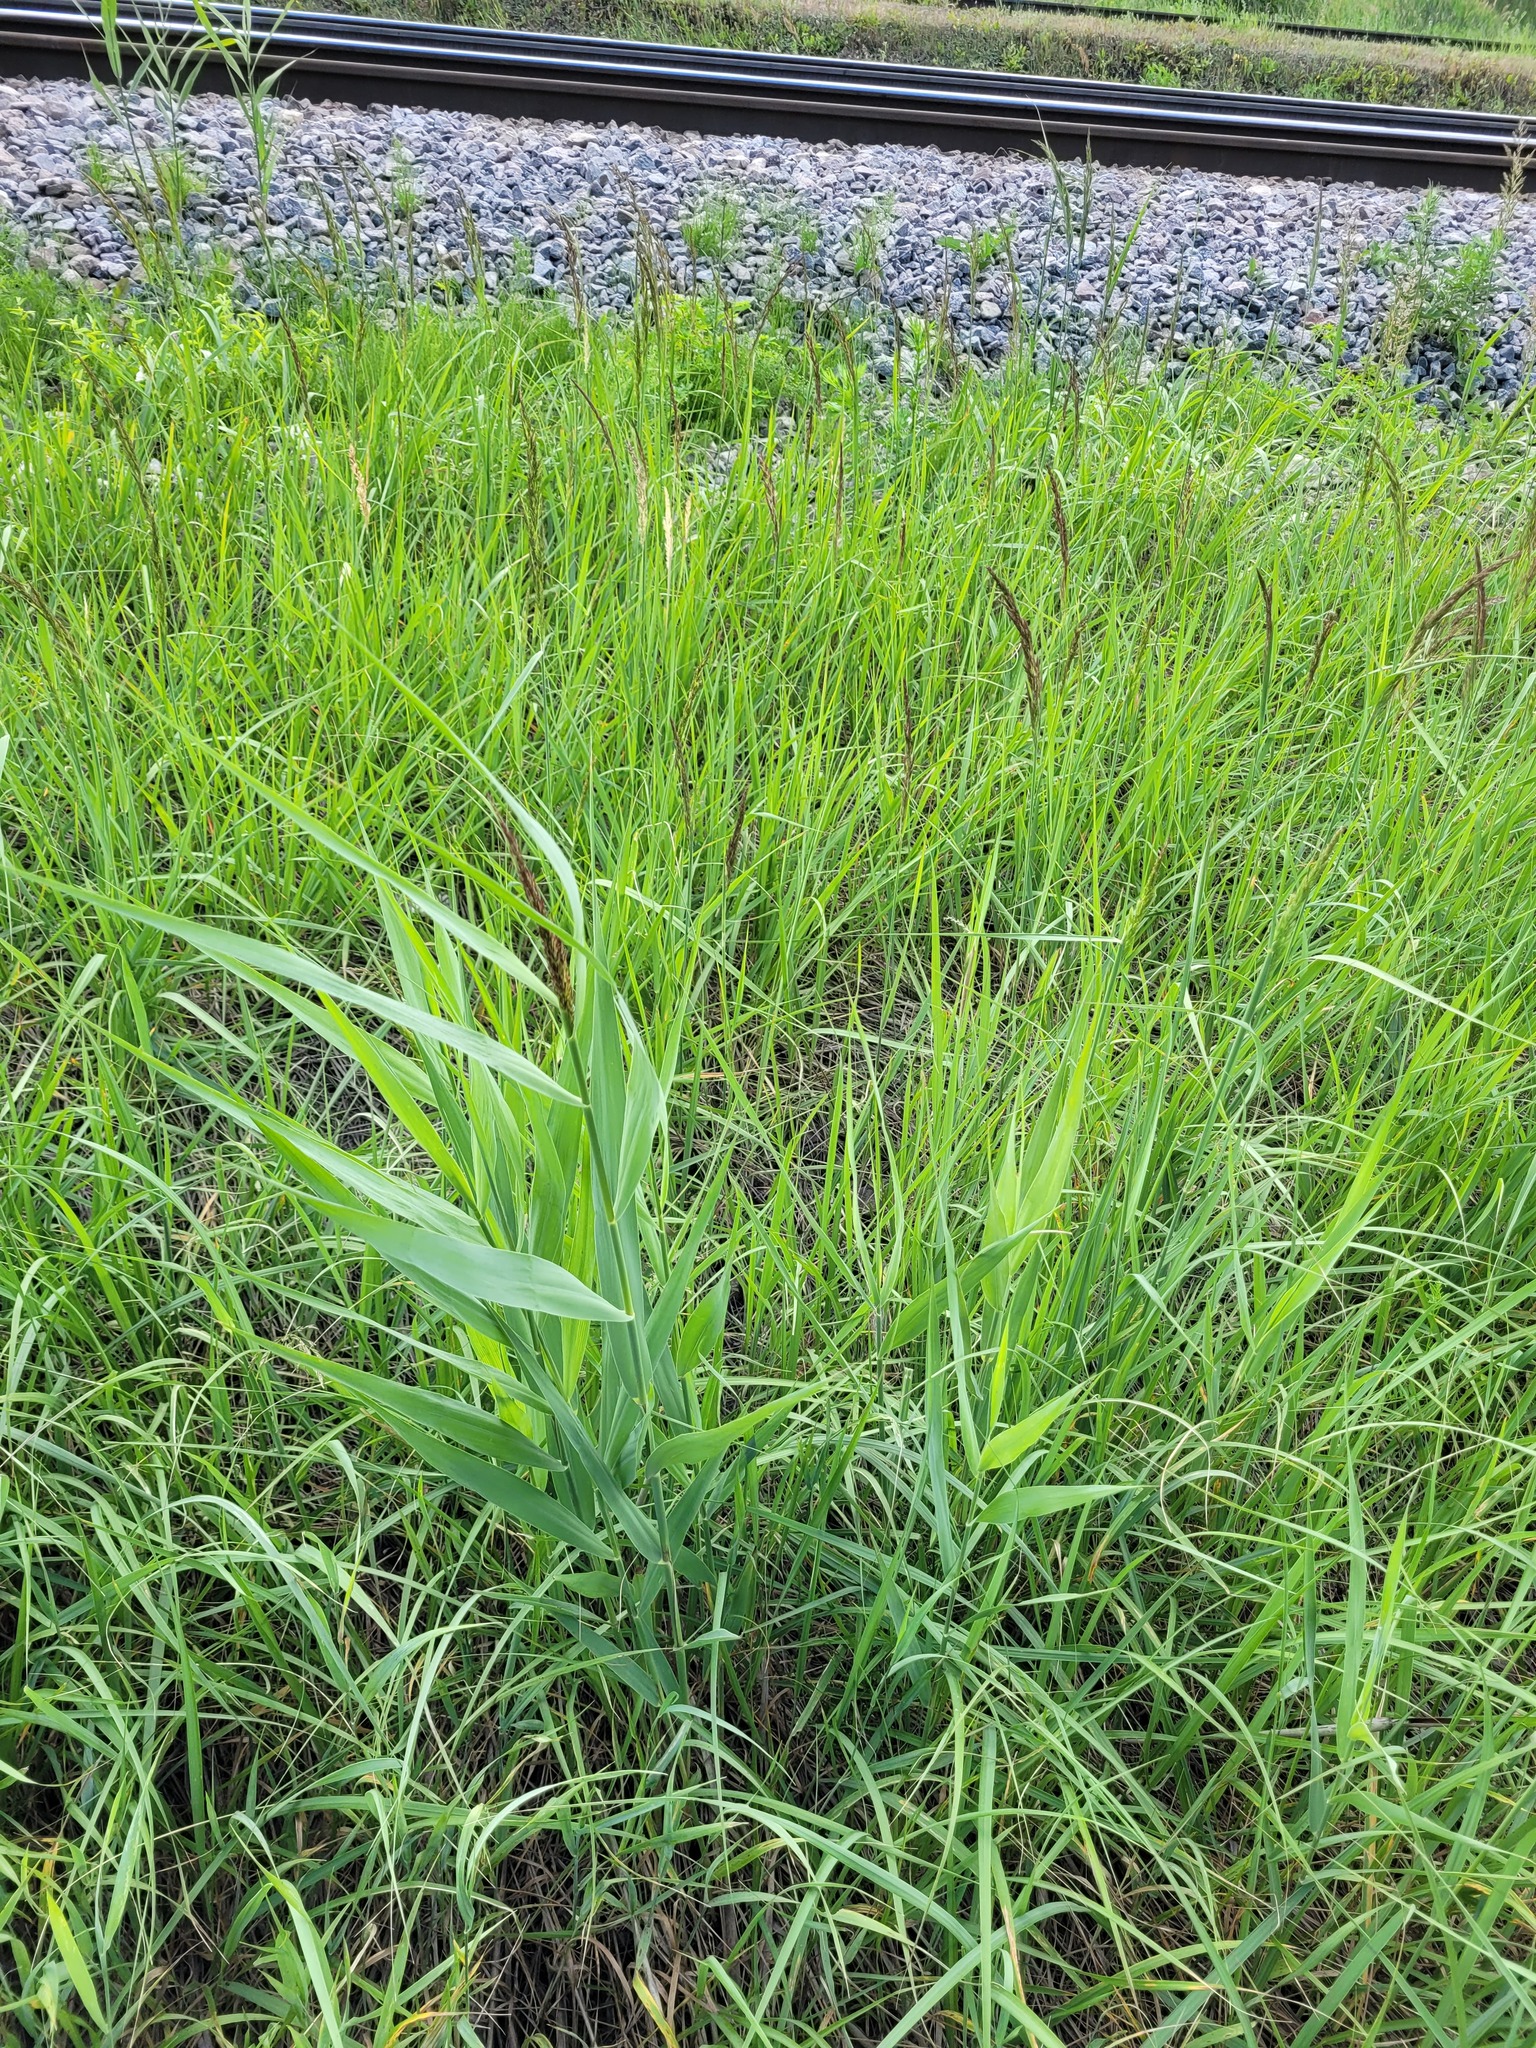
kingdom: Plantae
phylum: Tracheophyta
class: Liliopsida
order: Poales
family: Poaceae
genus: Phragmites
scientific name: Phragmites australis
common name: Common reed
